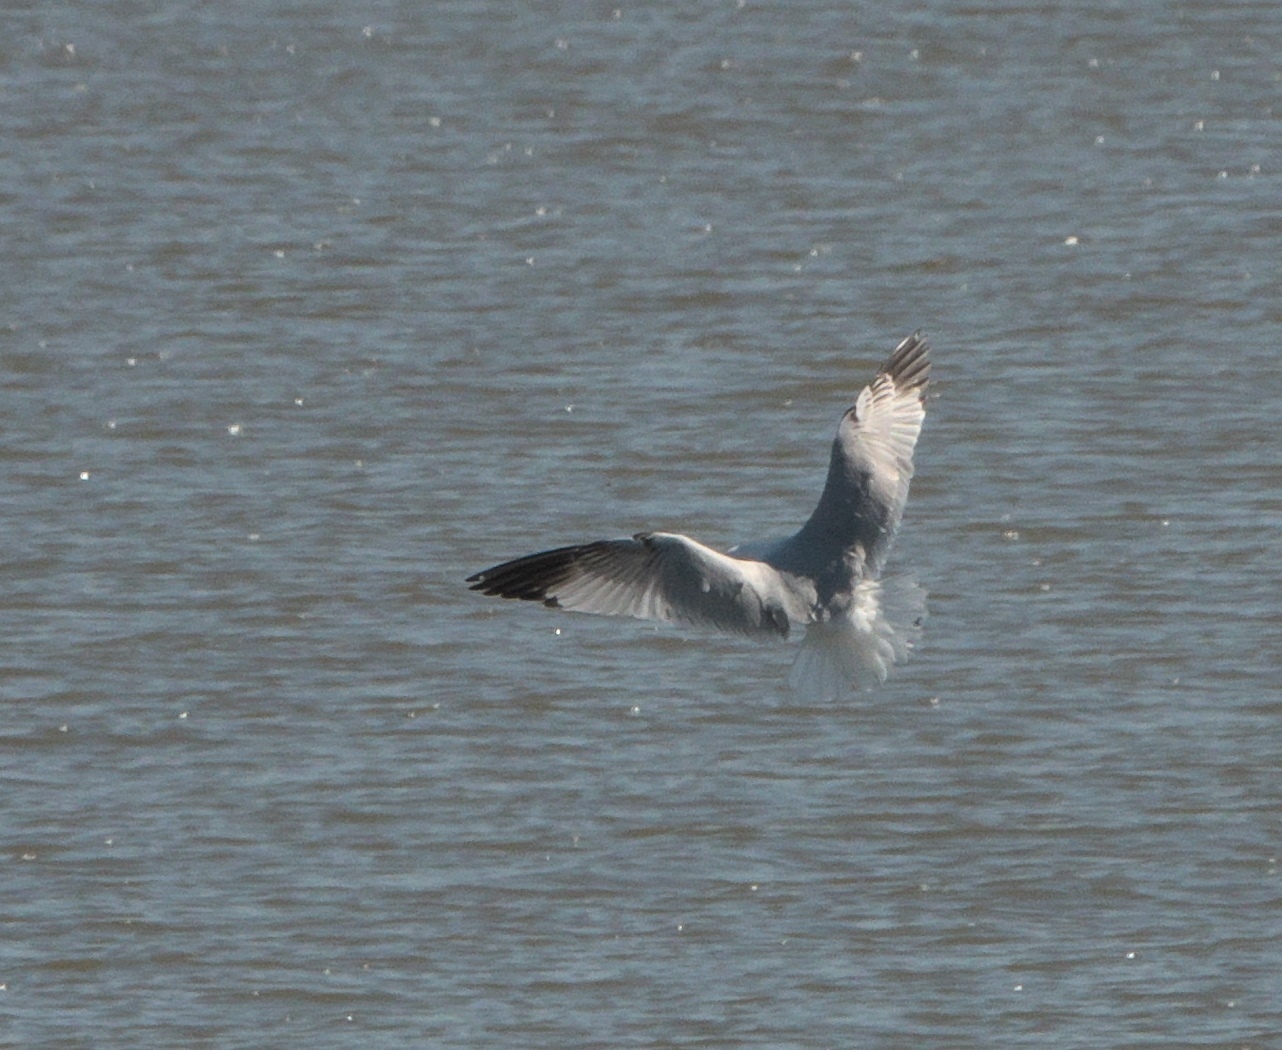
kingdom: Animalia
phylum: Chordata
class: Aves
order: Charadriiformes
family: Laridae
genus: Larus
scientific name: Larus delawarensis
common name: Ring-billed gull
